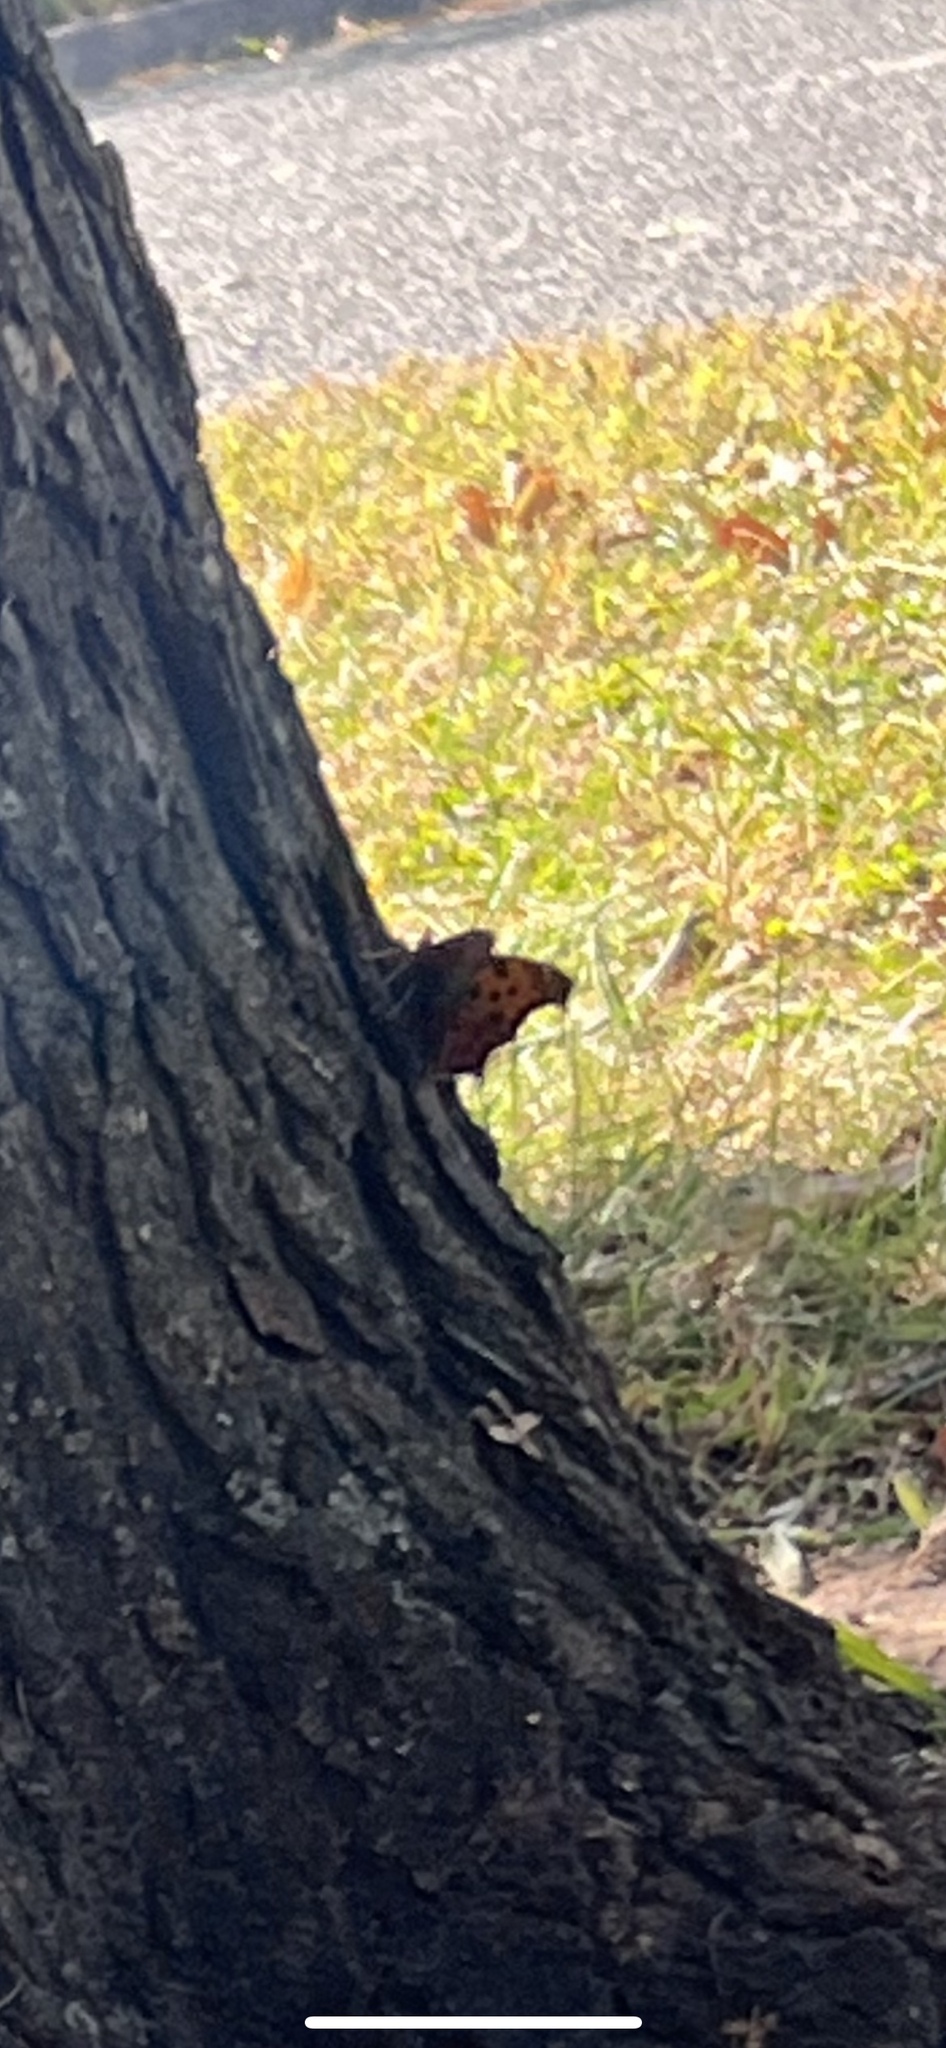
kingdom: Animalia
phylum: Arthropoda
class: Insecta
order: Lepidoptera
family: Nymphalidae
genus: Polygonia
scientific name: Polygonia comma
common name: Eastern comma
